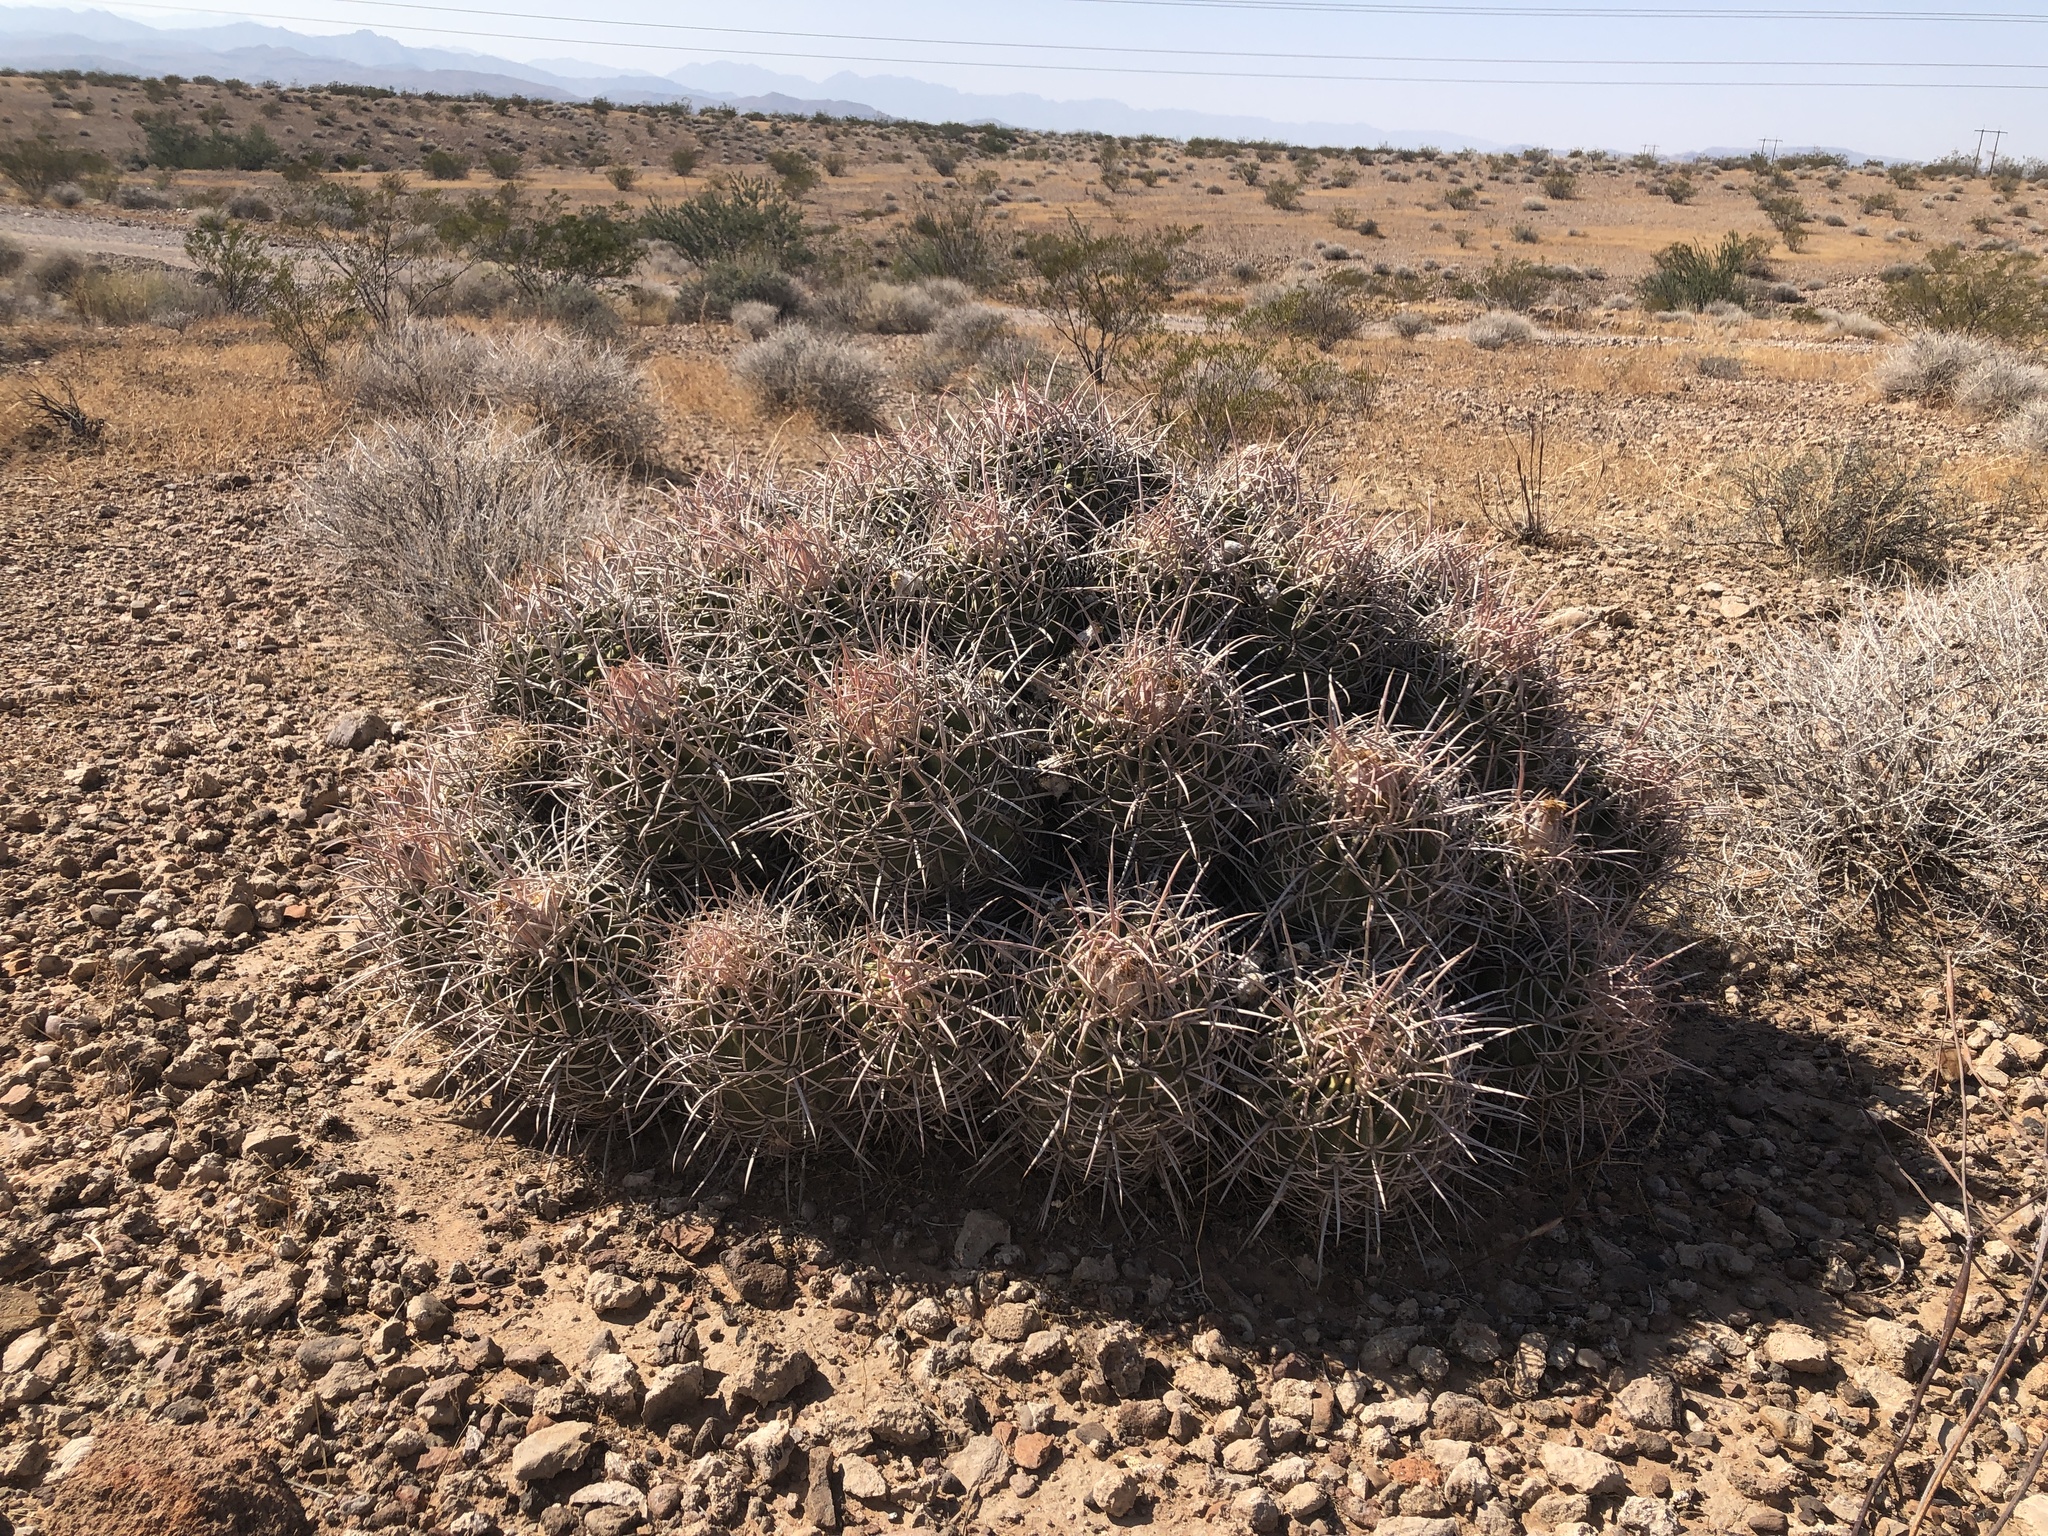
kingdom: Plantae
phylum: Tracheophyta
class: Magnoliopsida
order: Caryophyllales
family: Cactaceae
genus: Echinocactus
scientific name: Echinocactus polycephalus
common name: Cottontop cactus
